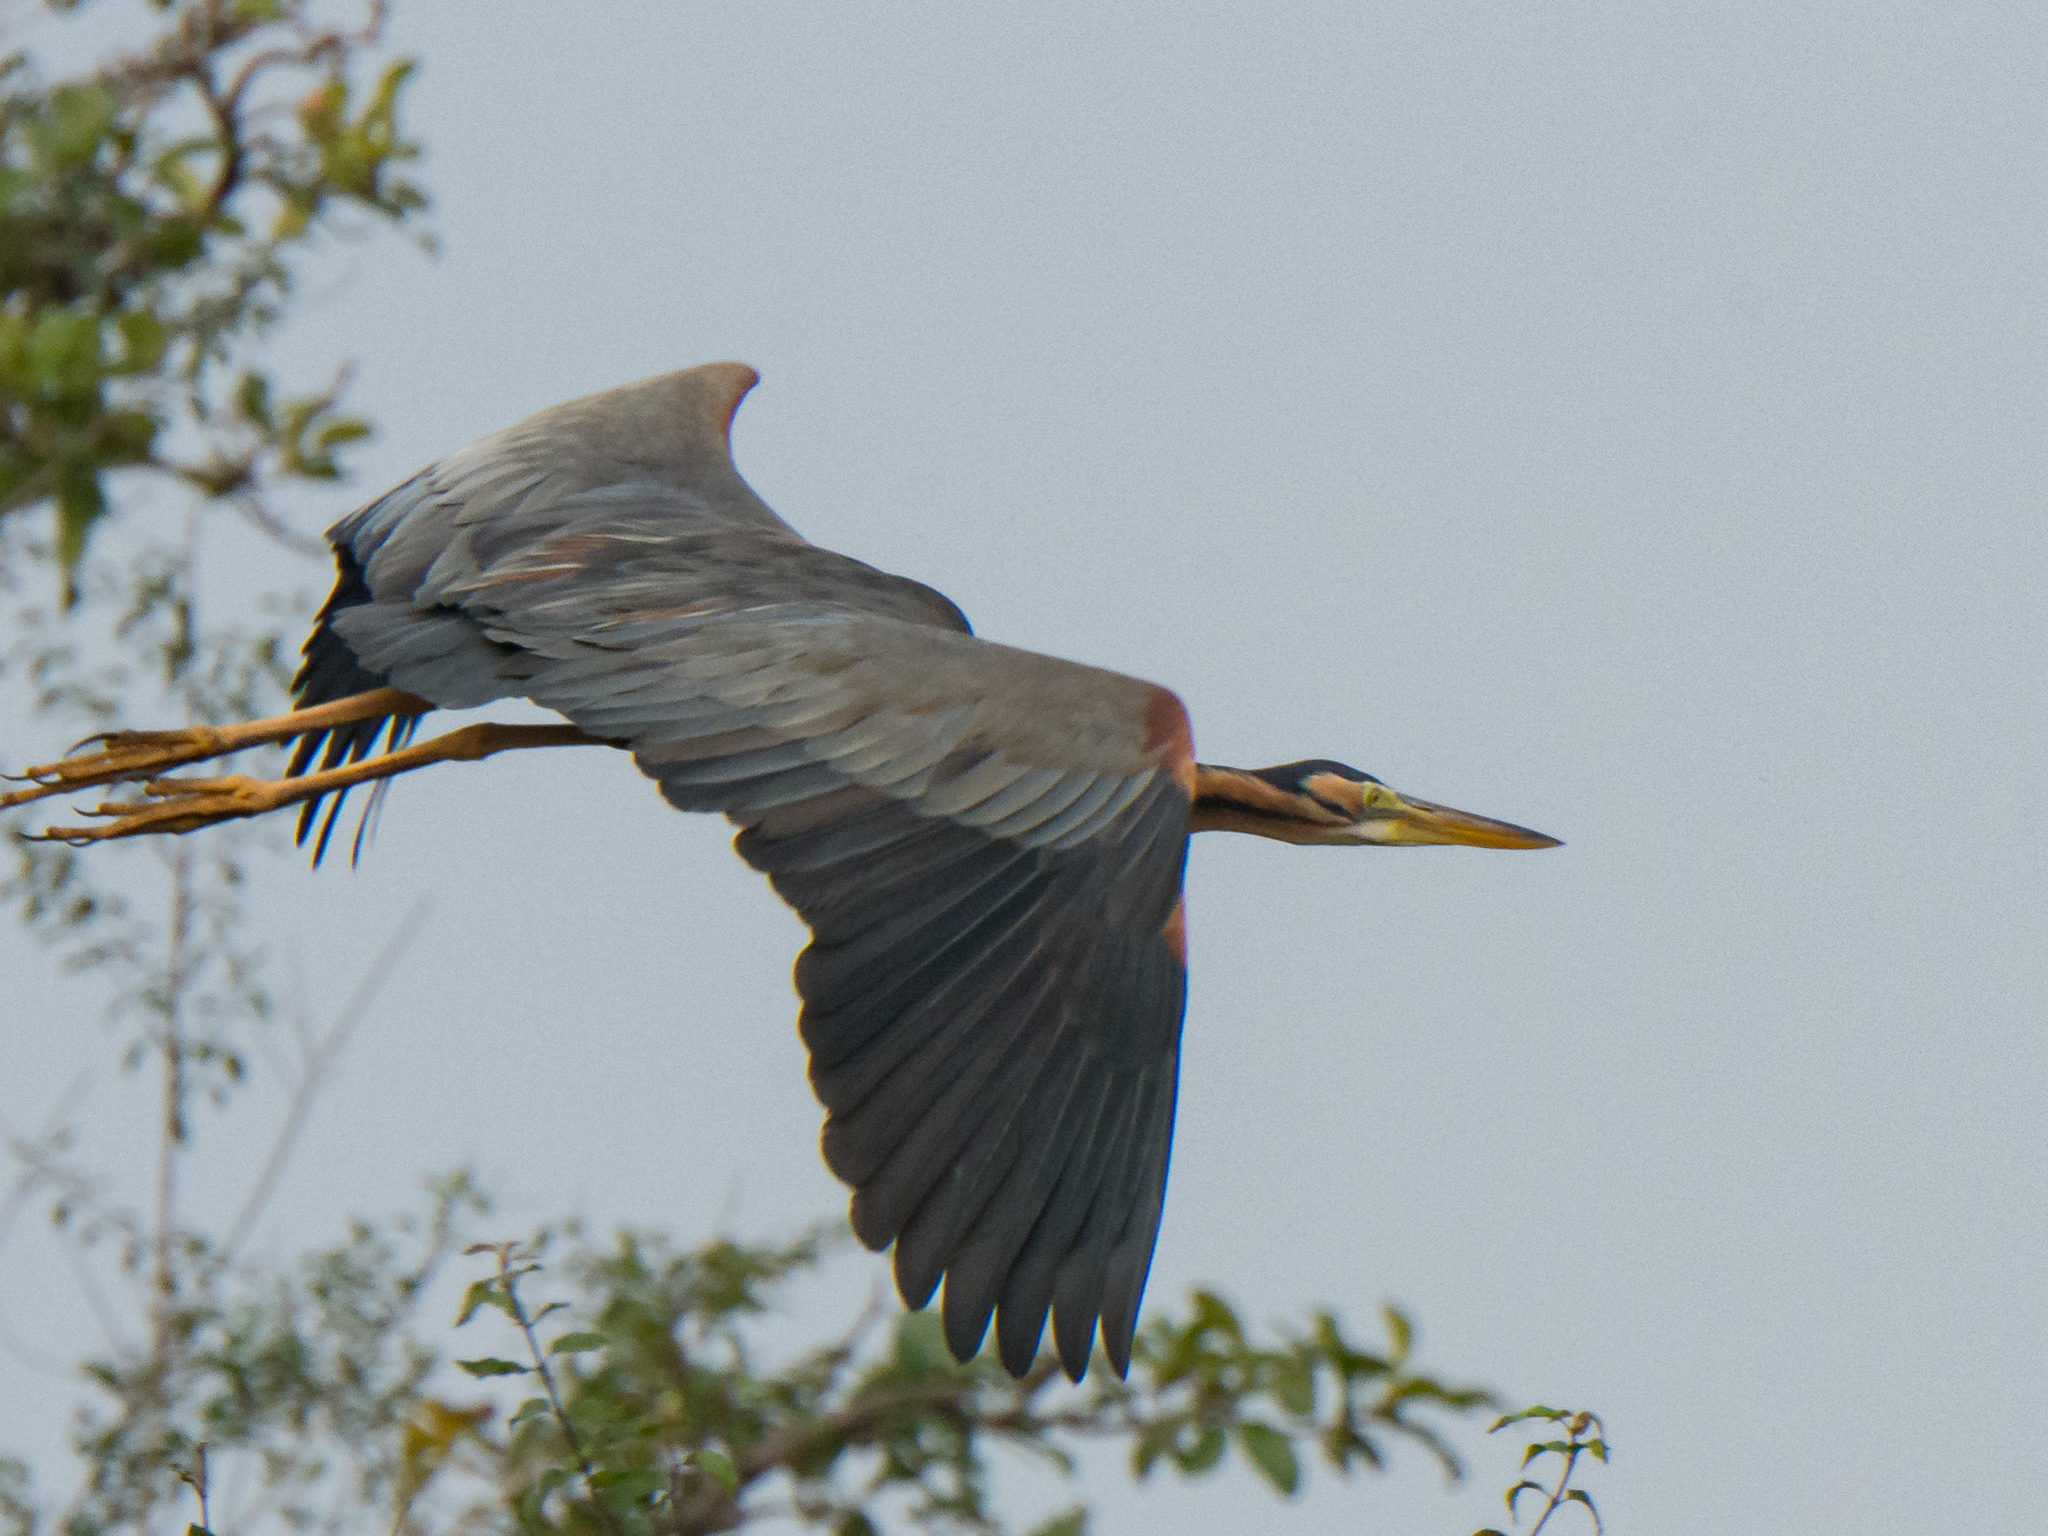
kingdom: Animalia
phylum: Chordata
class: Aves
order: Pelecaniformes
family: Ardeidae
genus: Ardea
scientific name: Ardea purpurea
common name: Purple heron
